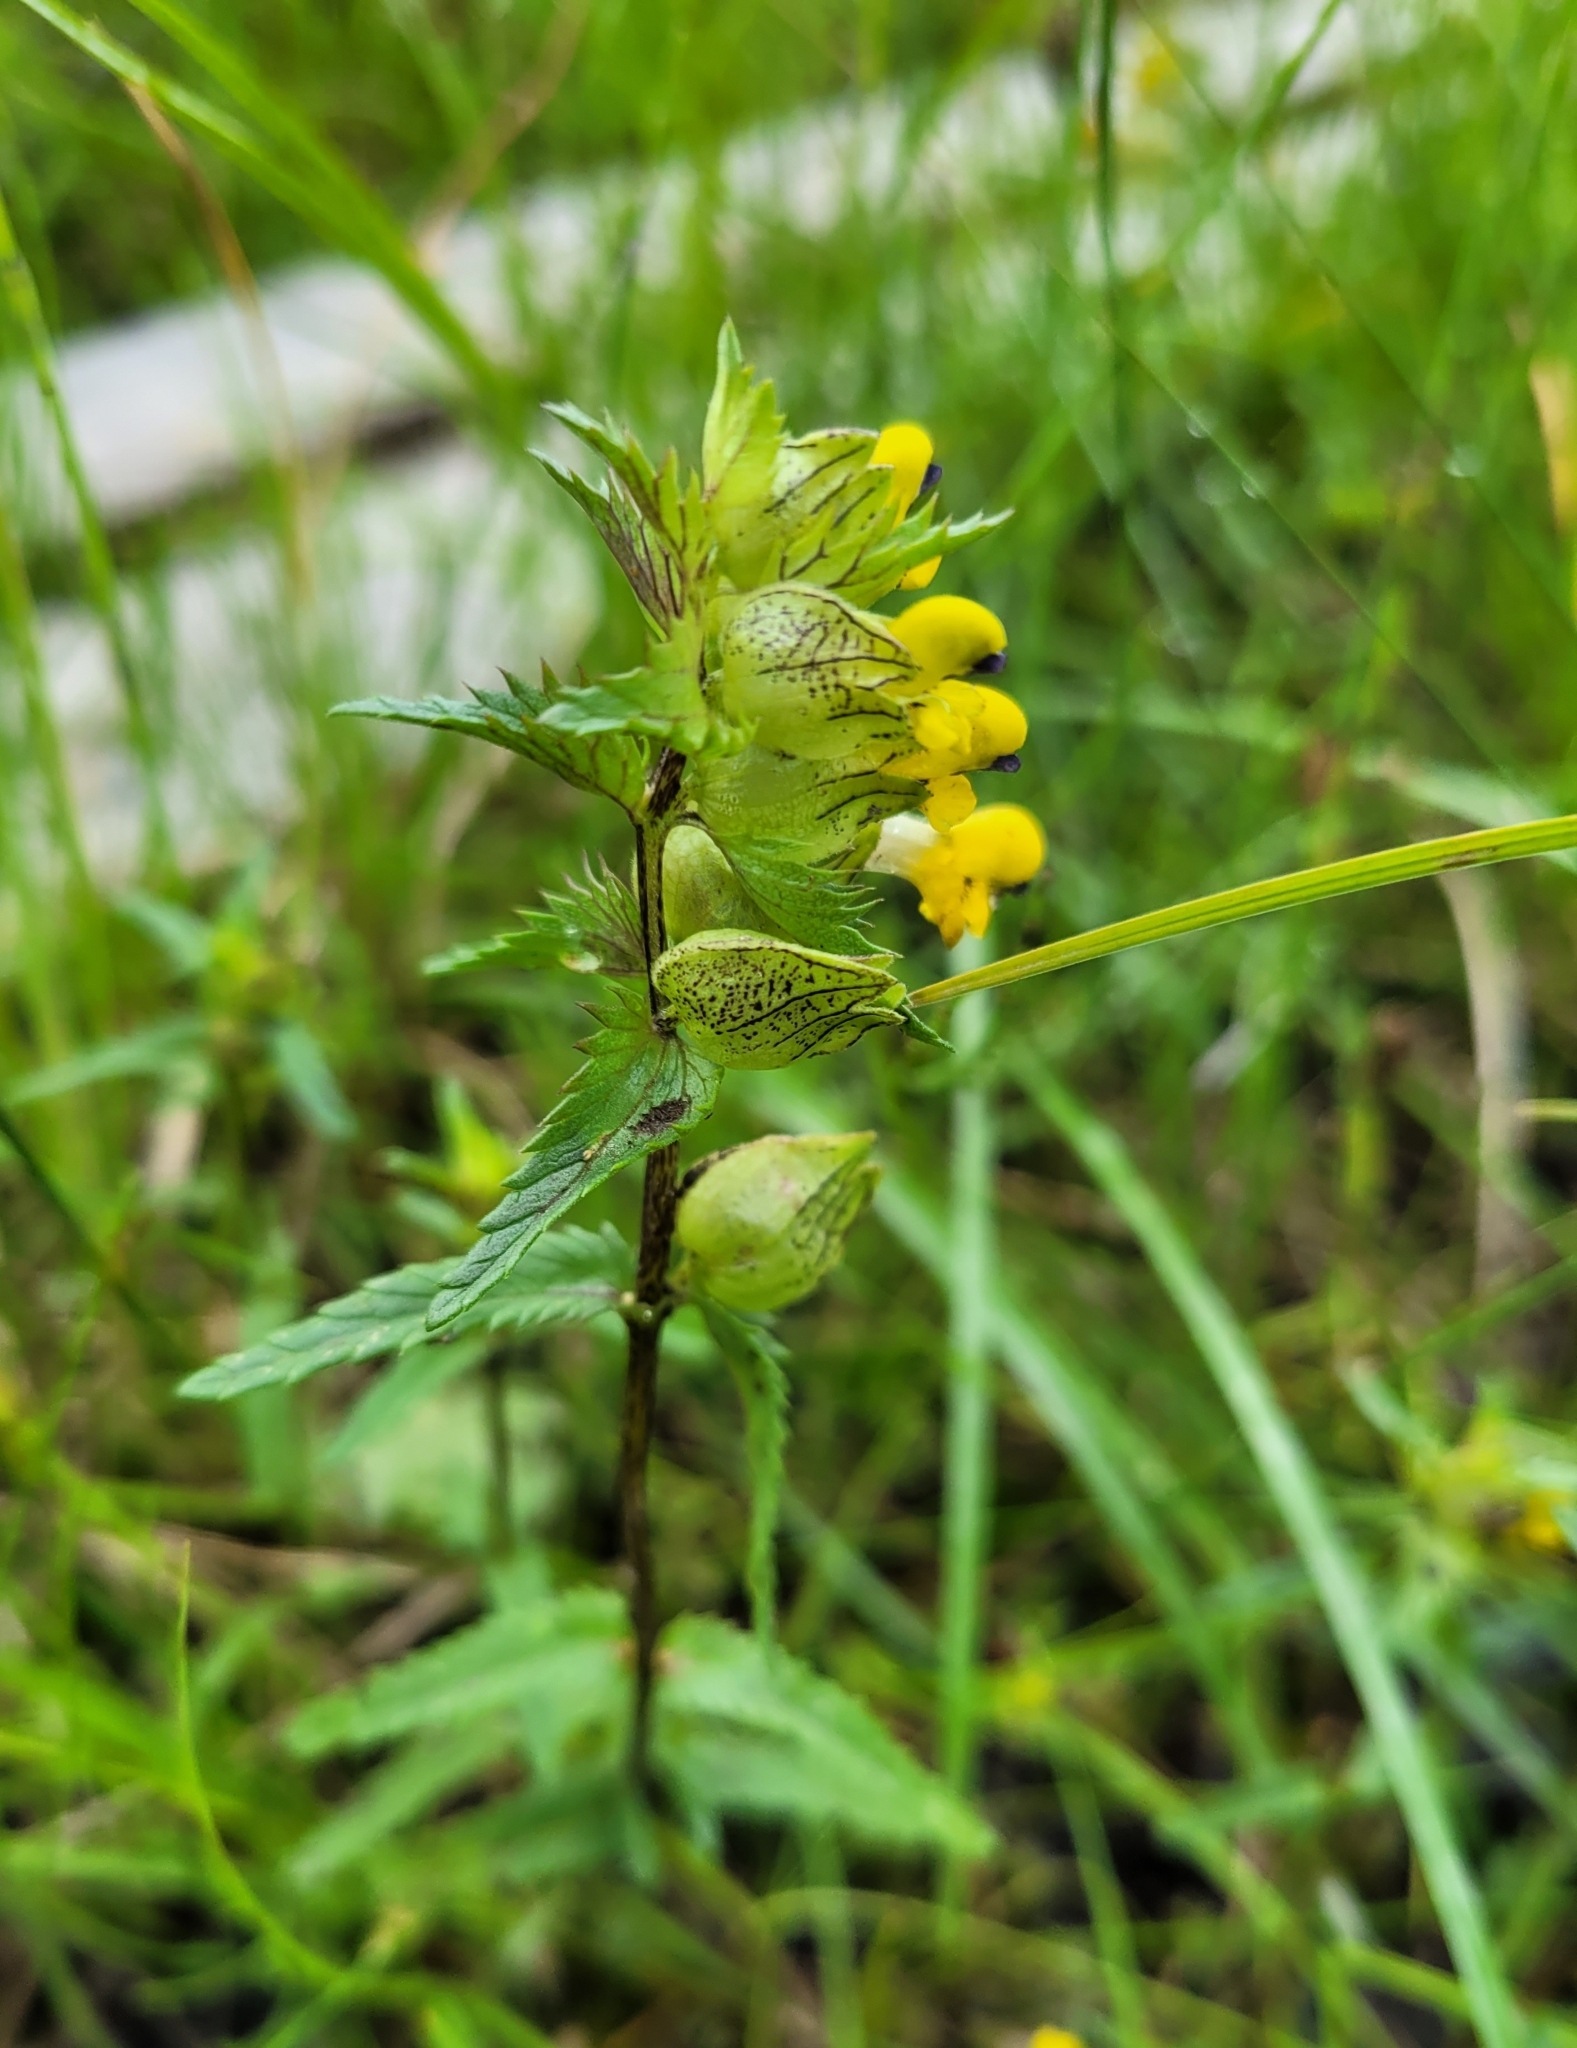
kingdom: Plantae
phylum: Tracheophyta
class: Magnoliopsida
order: Lamiales
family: Orobanchaceae
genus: Rhinanthus
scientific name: Rhinanthus minor
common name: Yellow-rattle
